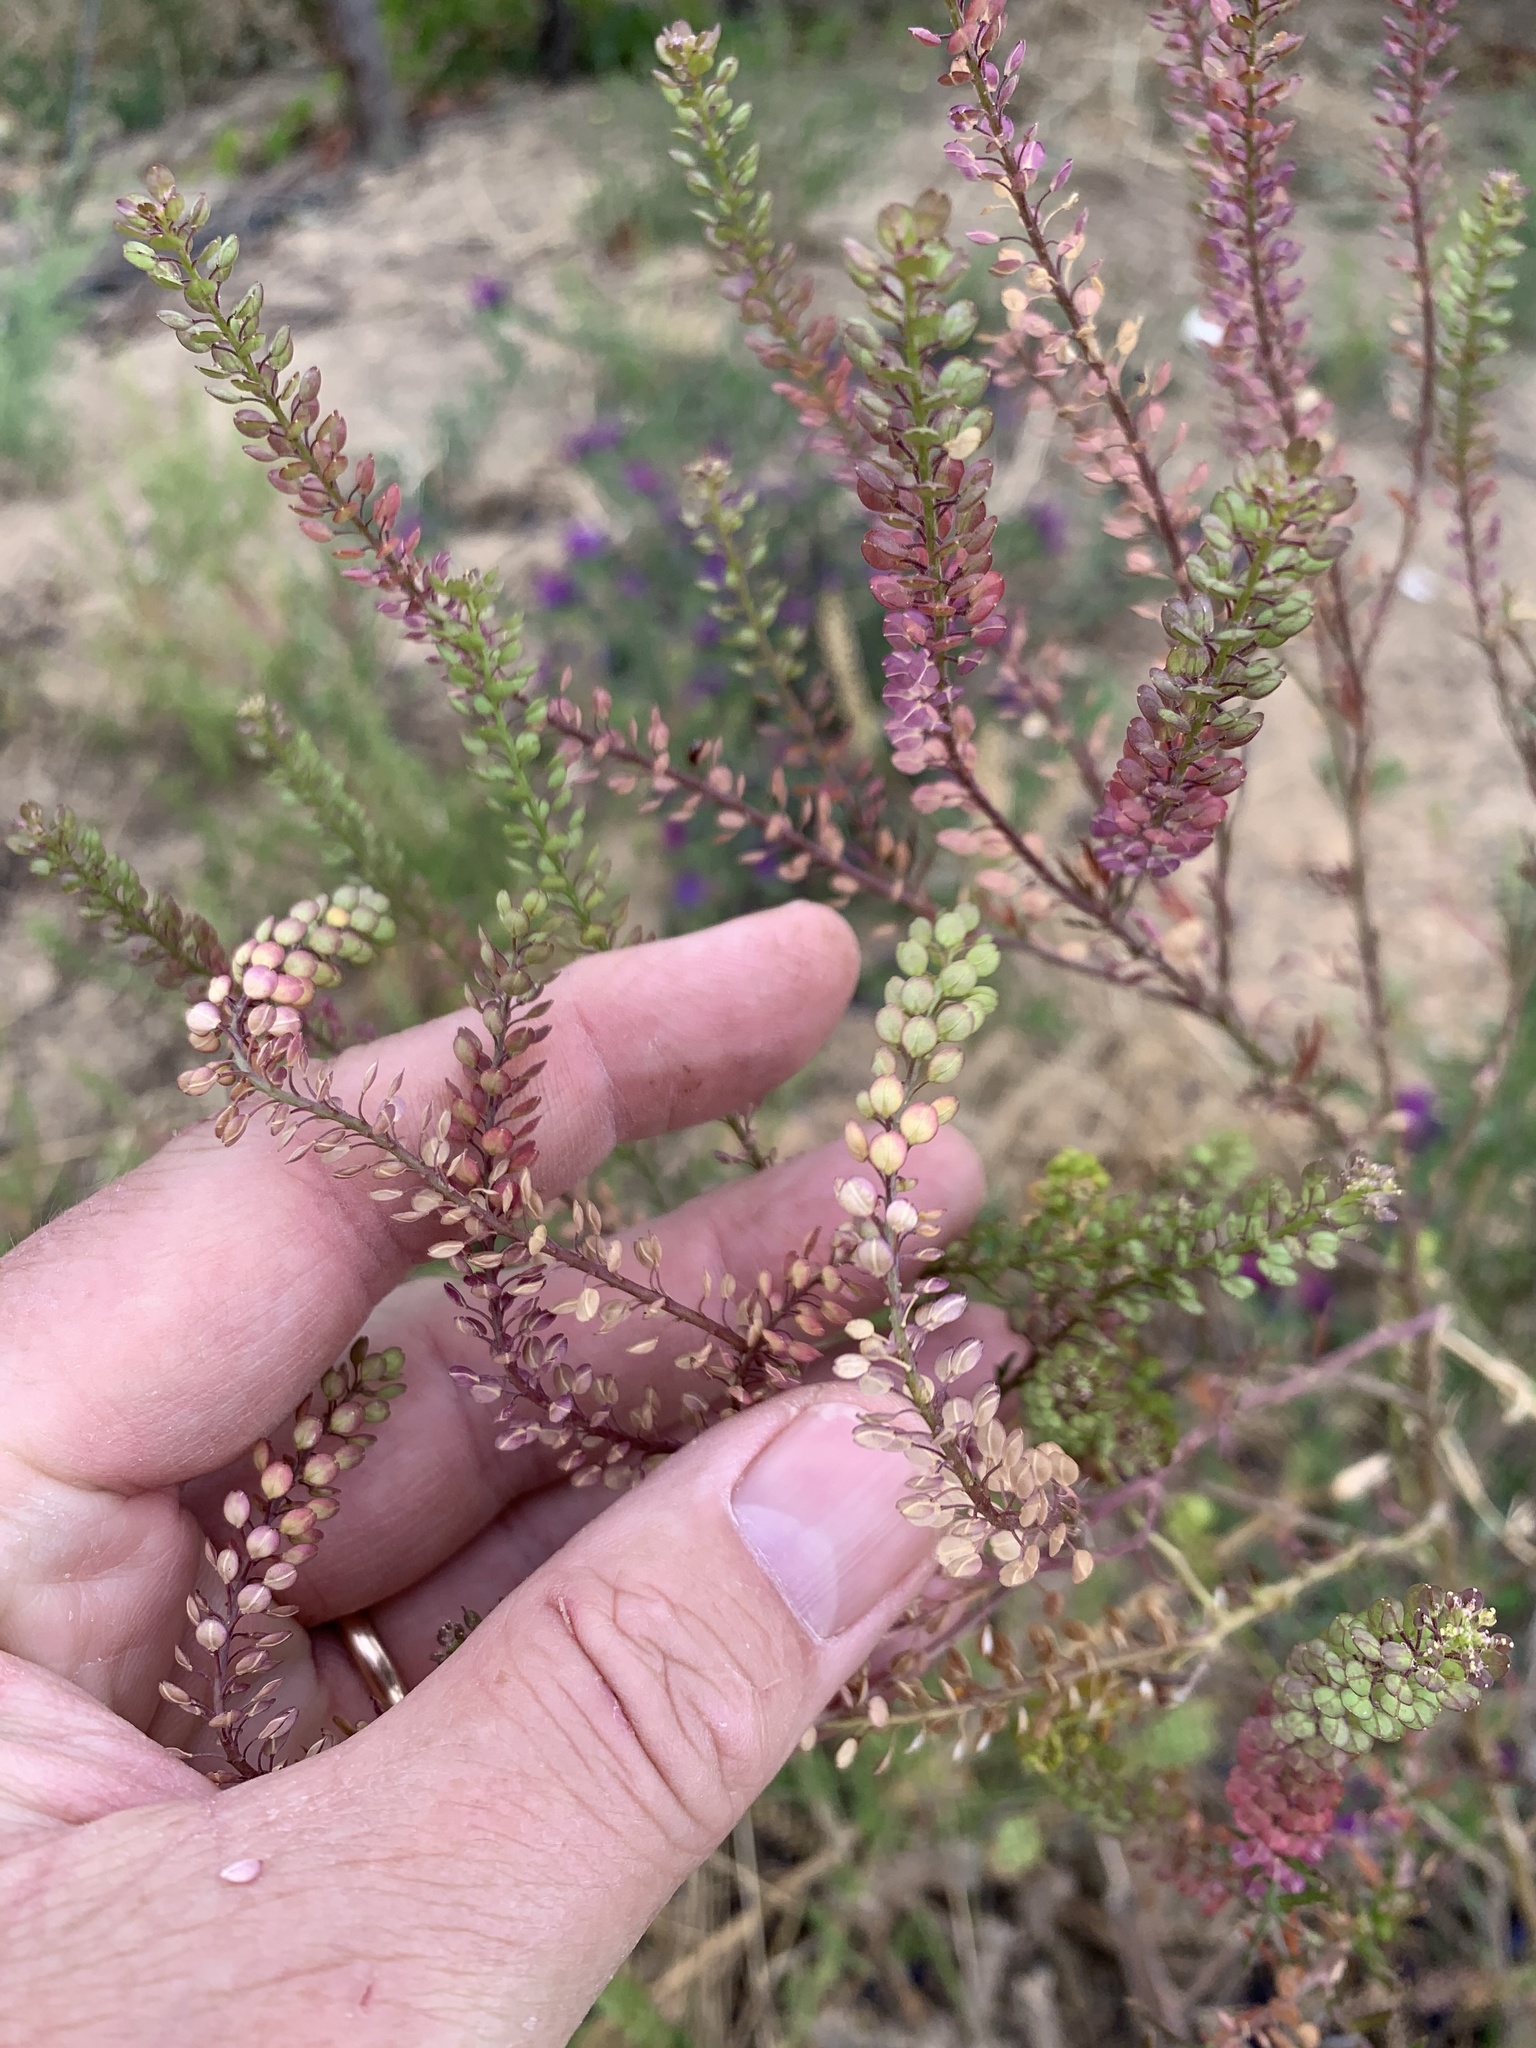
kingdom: Plantae
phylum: Tracheophyta
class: Magnoliopsida
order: Brassicales
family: Brassicaceae
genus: Lepidium
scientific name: Lepidium bonariense
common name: Argentine pepperwort
